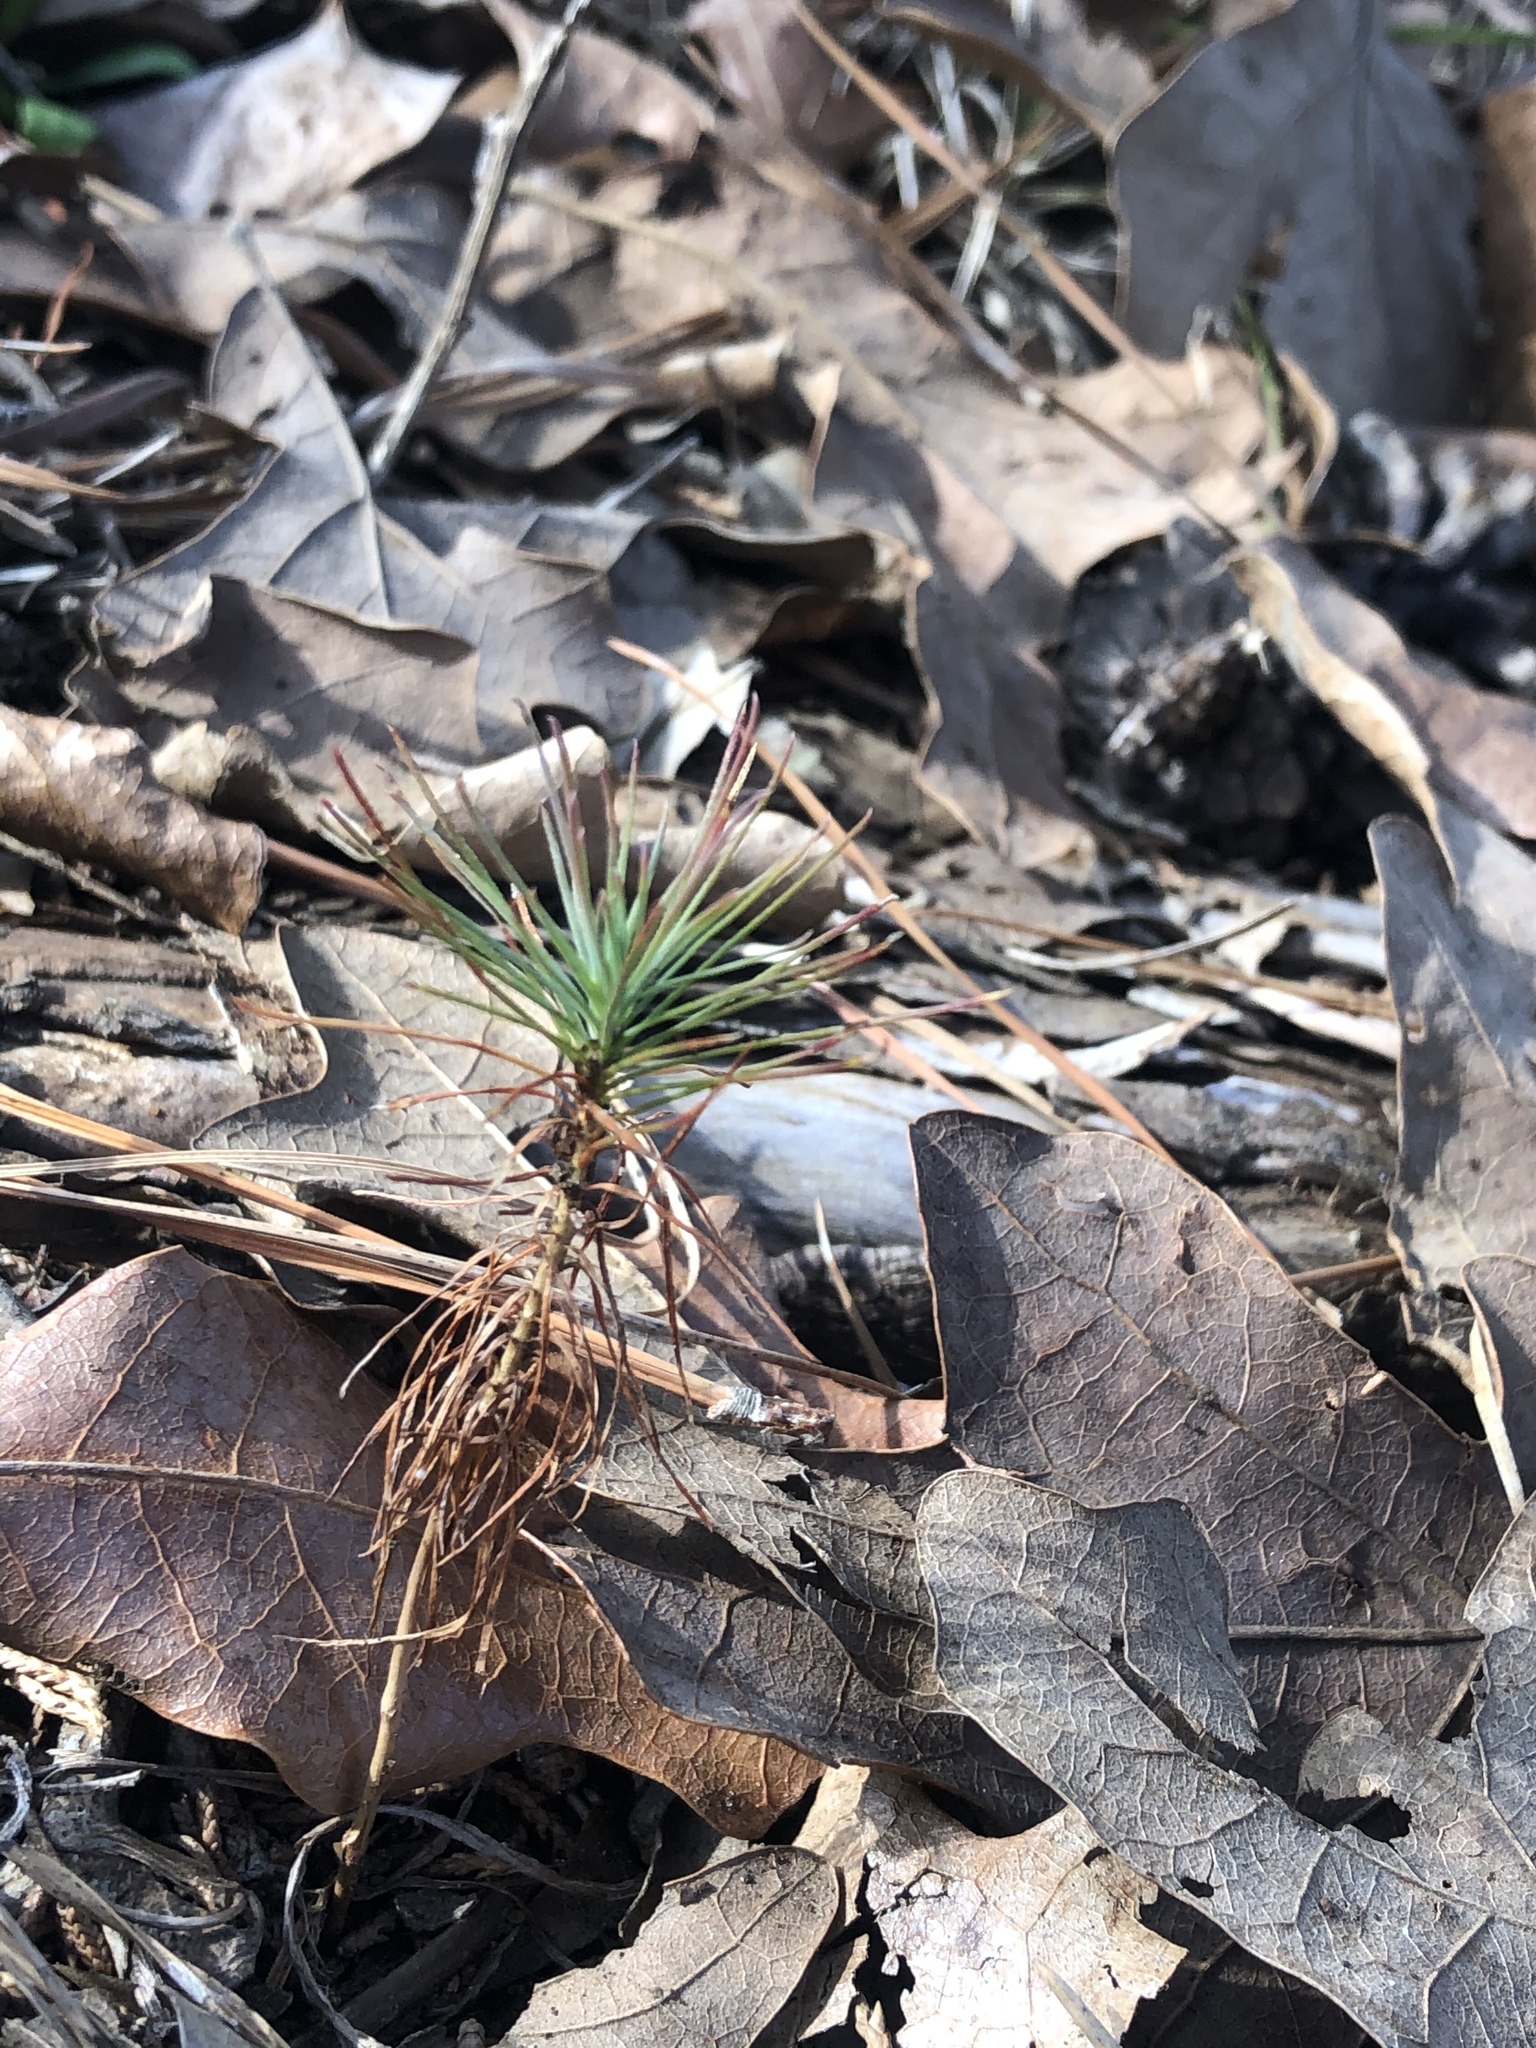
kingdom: Plantae
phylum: Tracheophyta
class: Pinopsida
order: Pinales
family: Pinaceae
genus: Pinus
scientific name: Pinus taeda
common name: Loblolly pine
